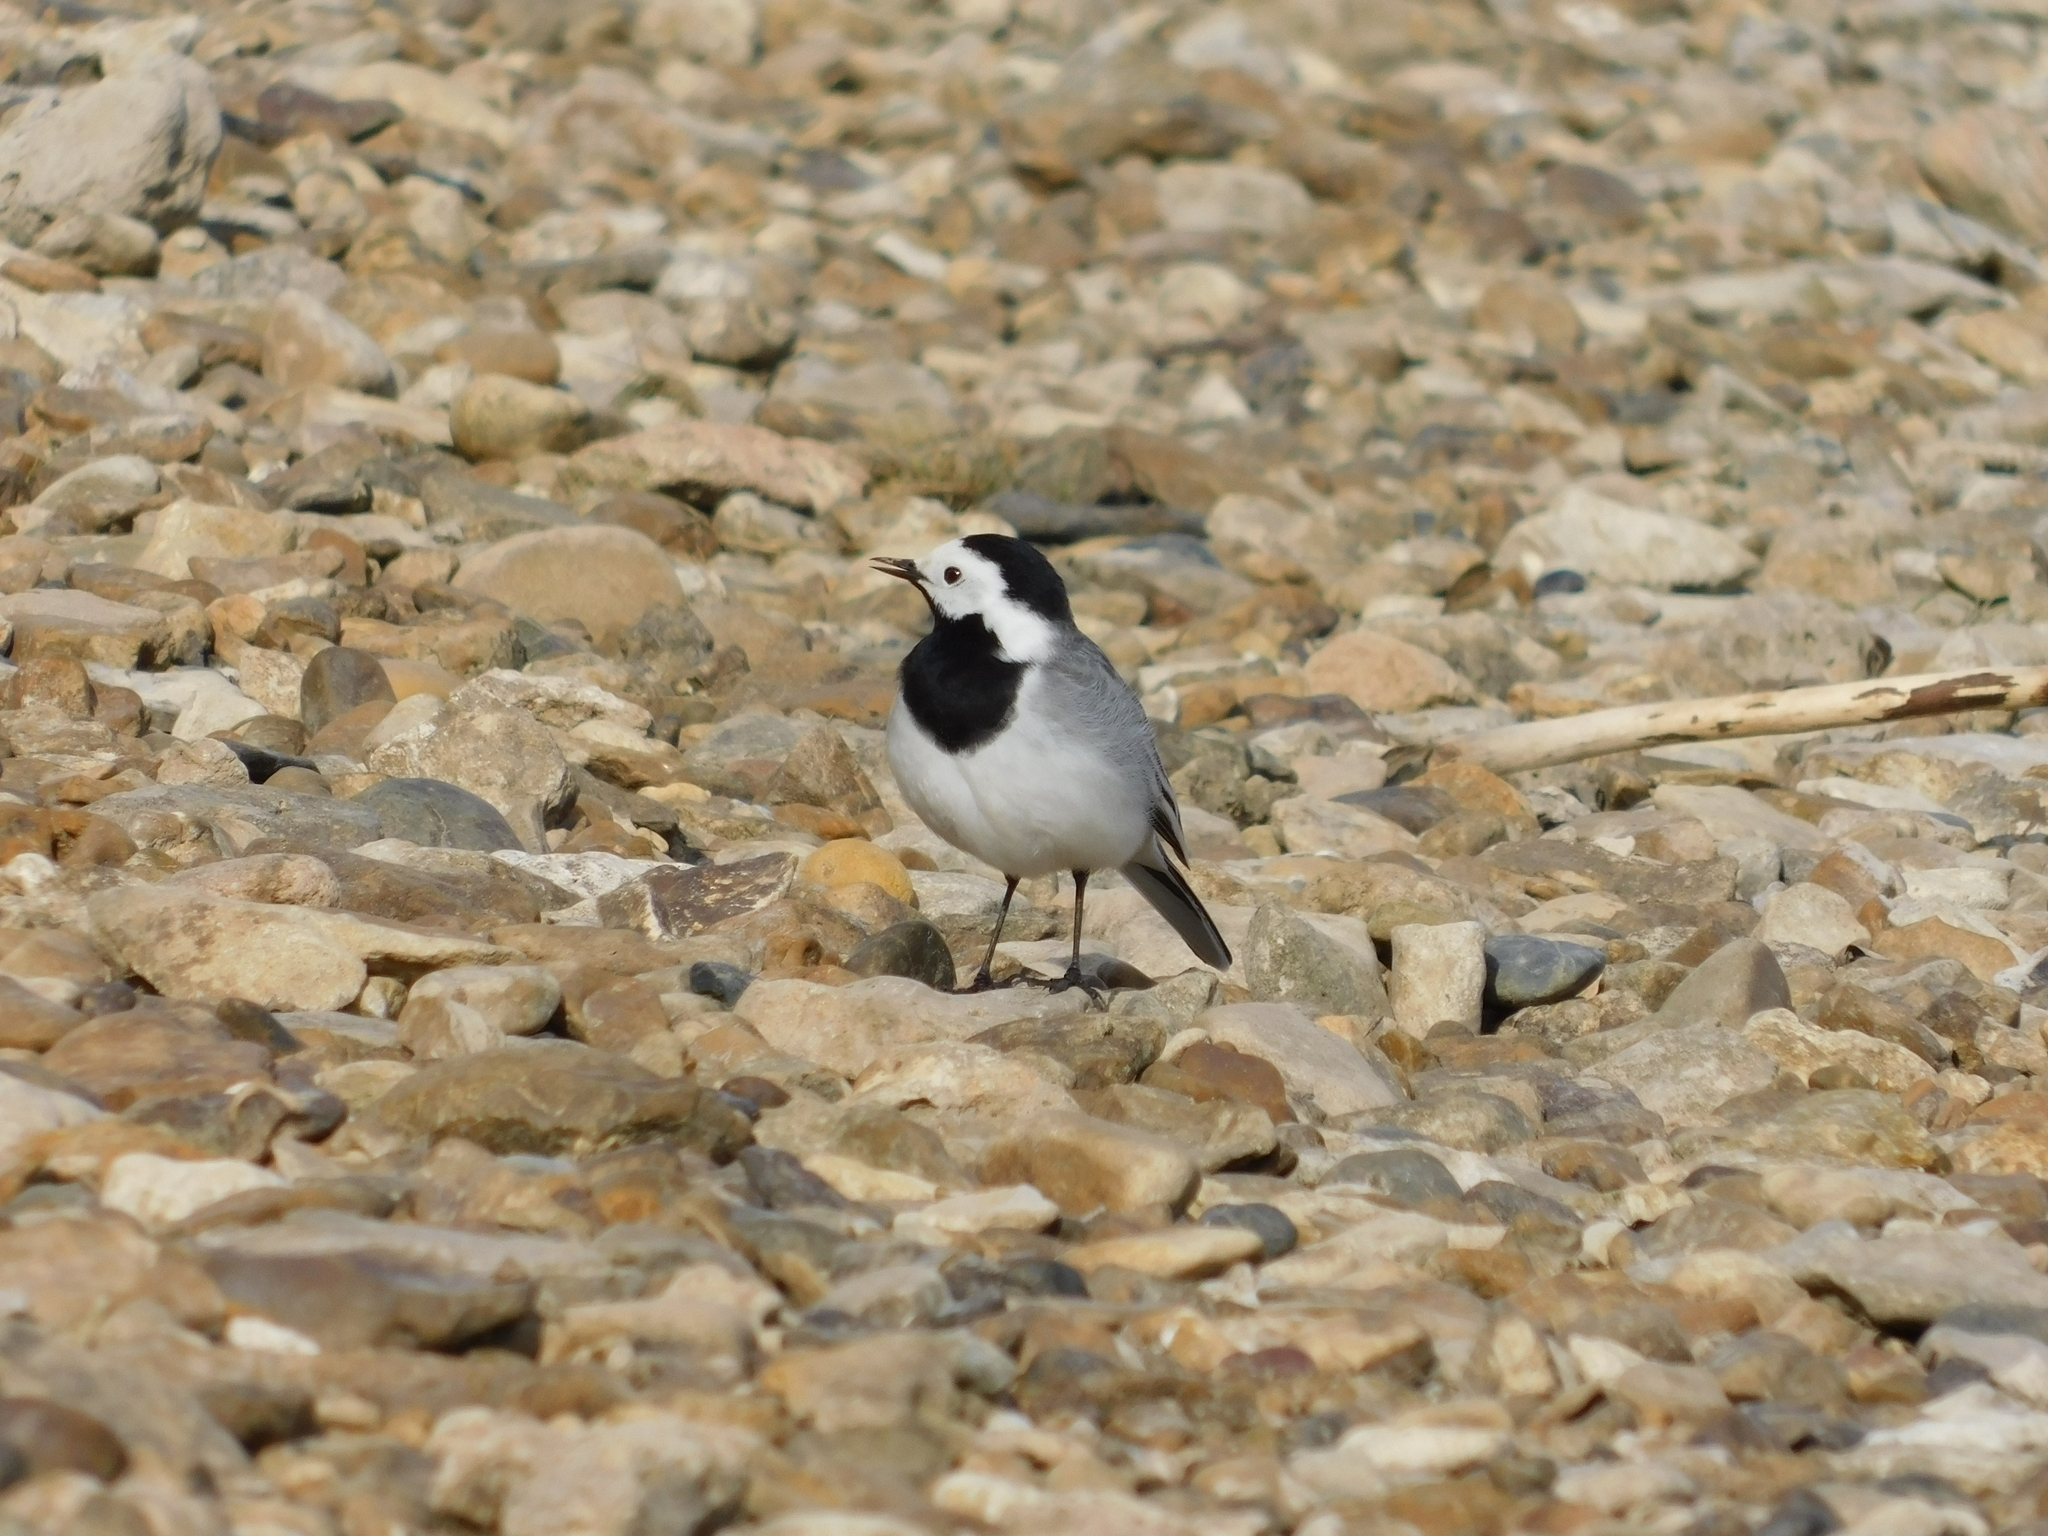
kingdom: Animalia
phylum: Chordata
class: Aves
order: Passeriformes
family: Motacillidae
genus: Motacilla
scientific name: Motacilla alba
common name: White wagtail
